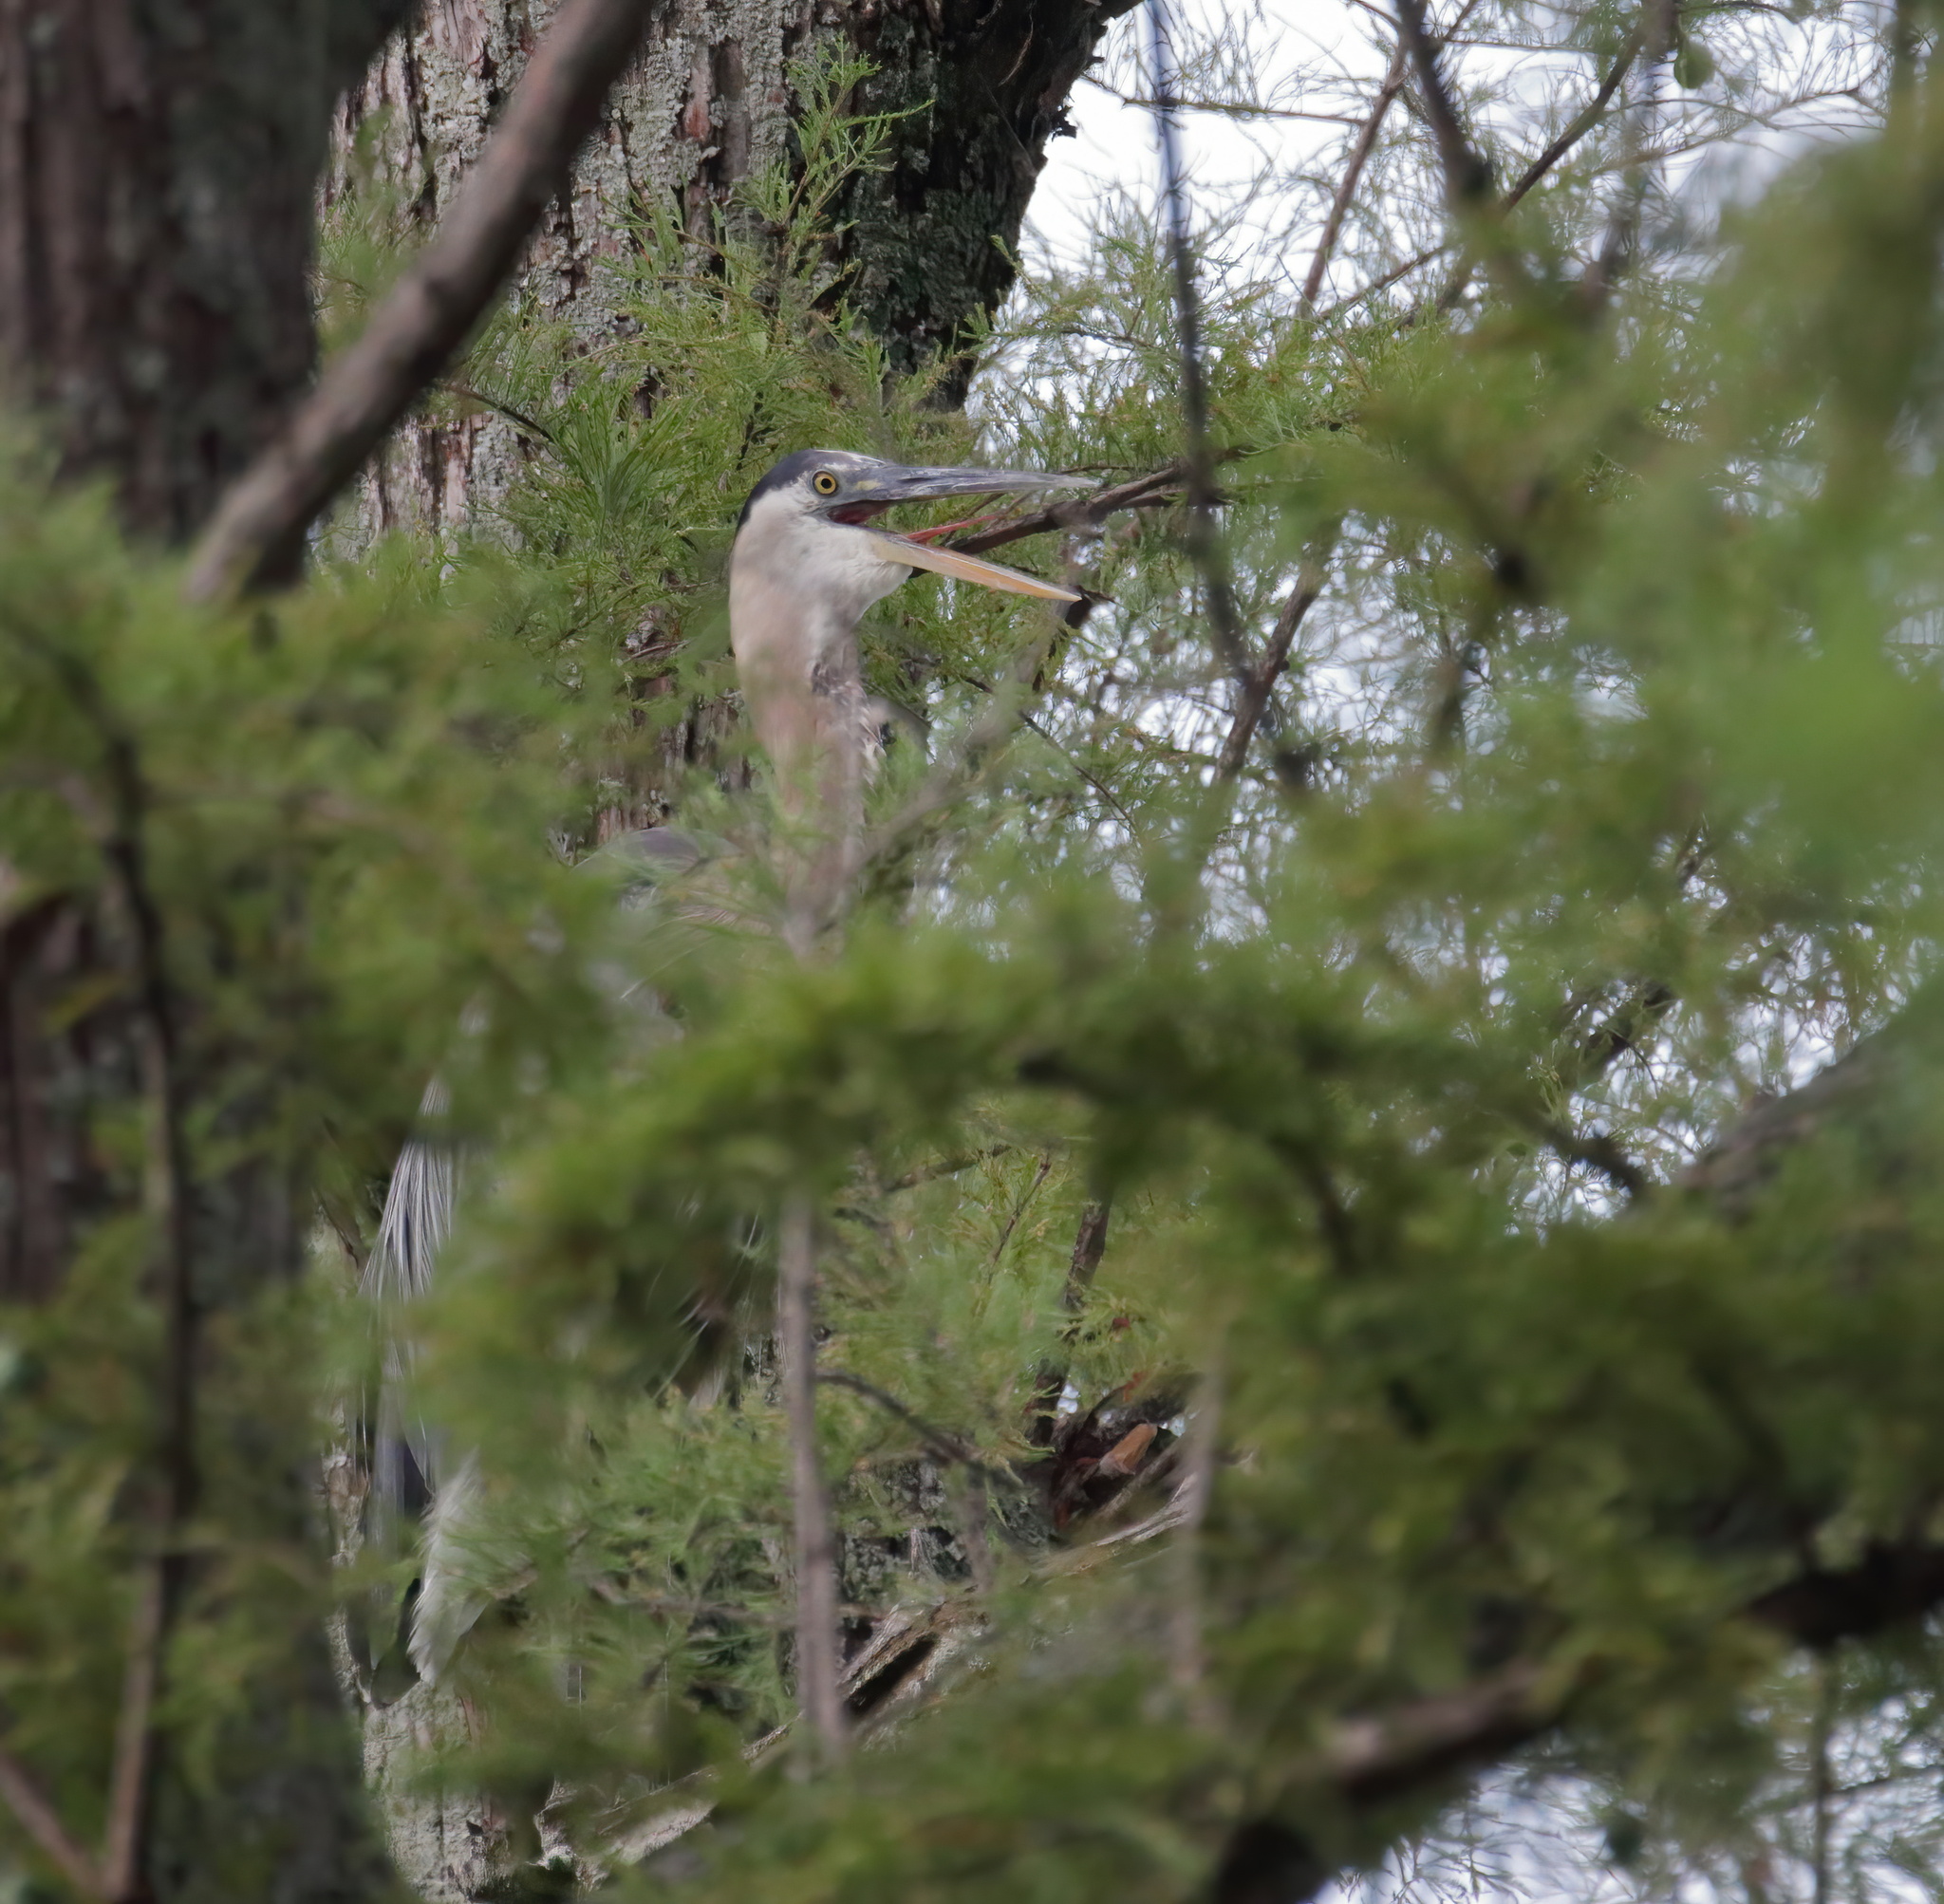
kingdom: Animalia
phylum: Chordata
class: Aves
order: Pelecaniformes
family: Ardeidae
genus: Ardea
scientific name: Ardea herodias
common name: Great blue heron
